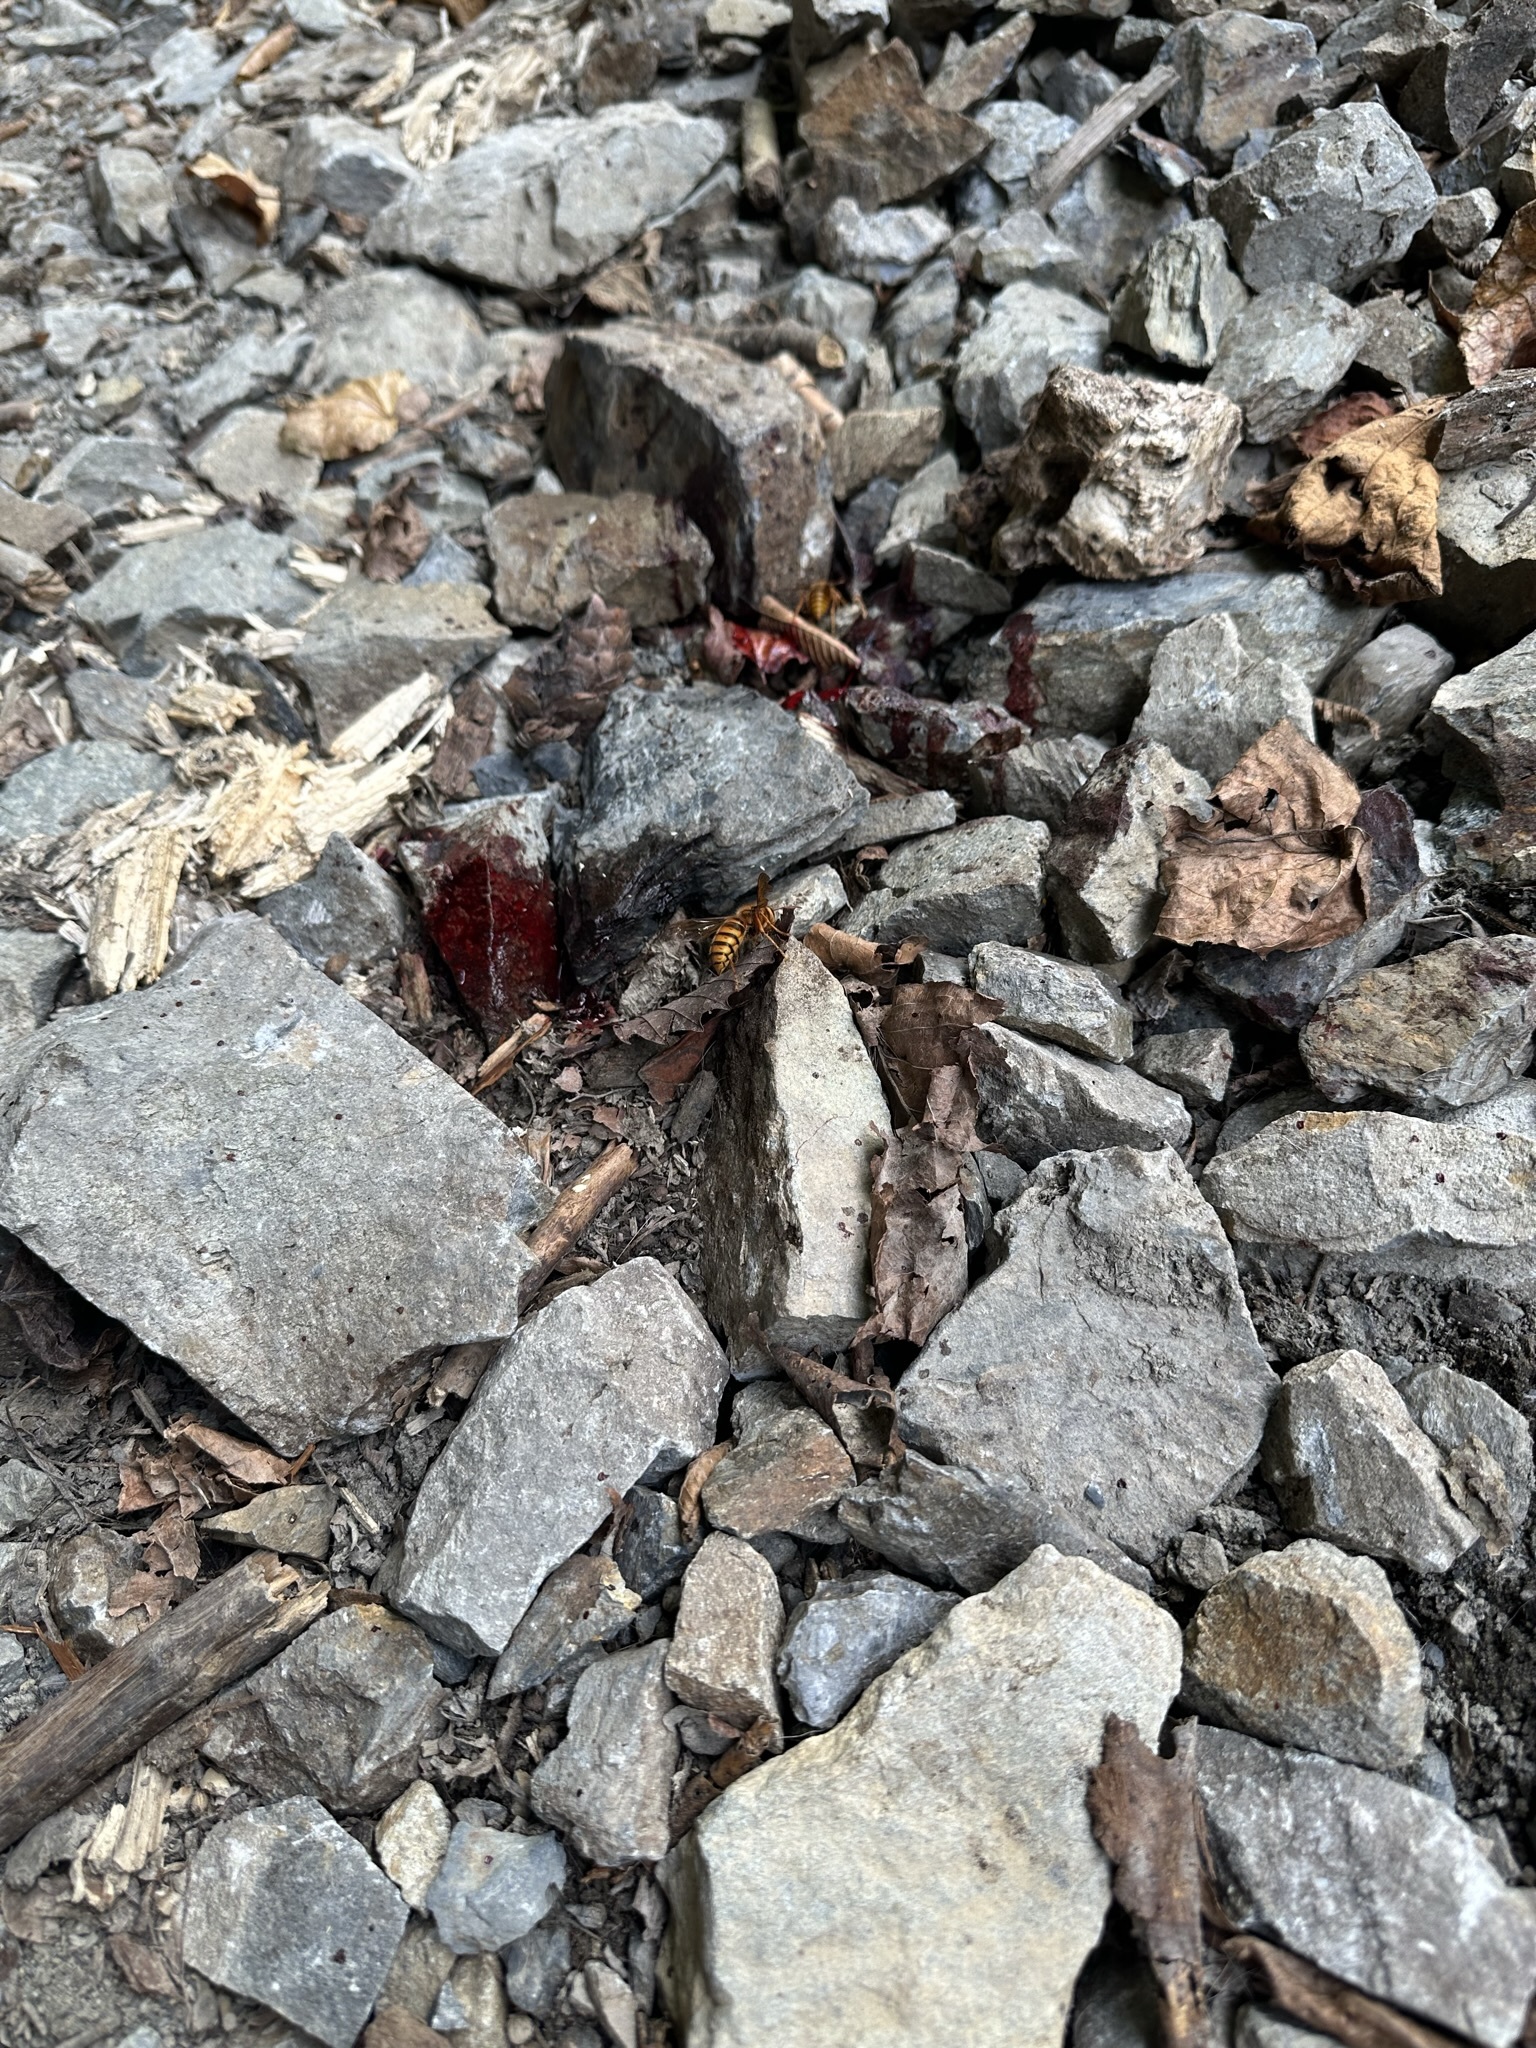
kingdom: Animalia
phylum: Arthropoda
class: Insecta
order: Hymenoptera
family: Vespidae
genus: Vespa
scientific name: Vespa simillima
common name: Vespid wasp
